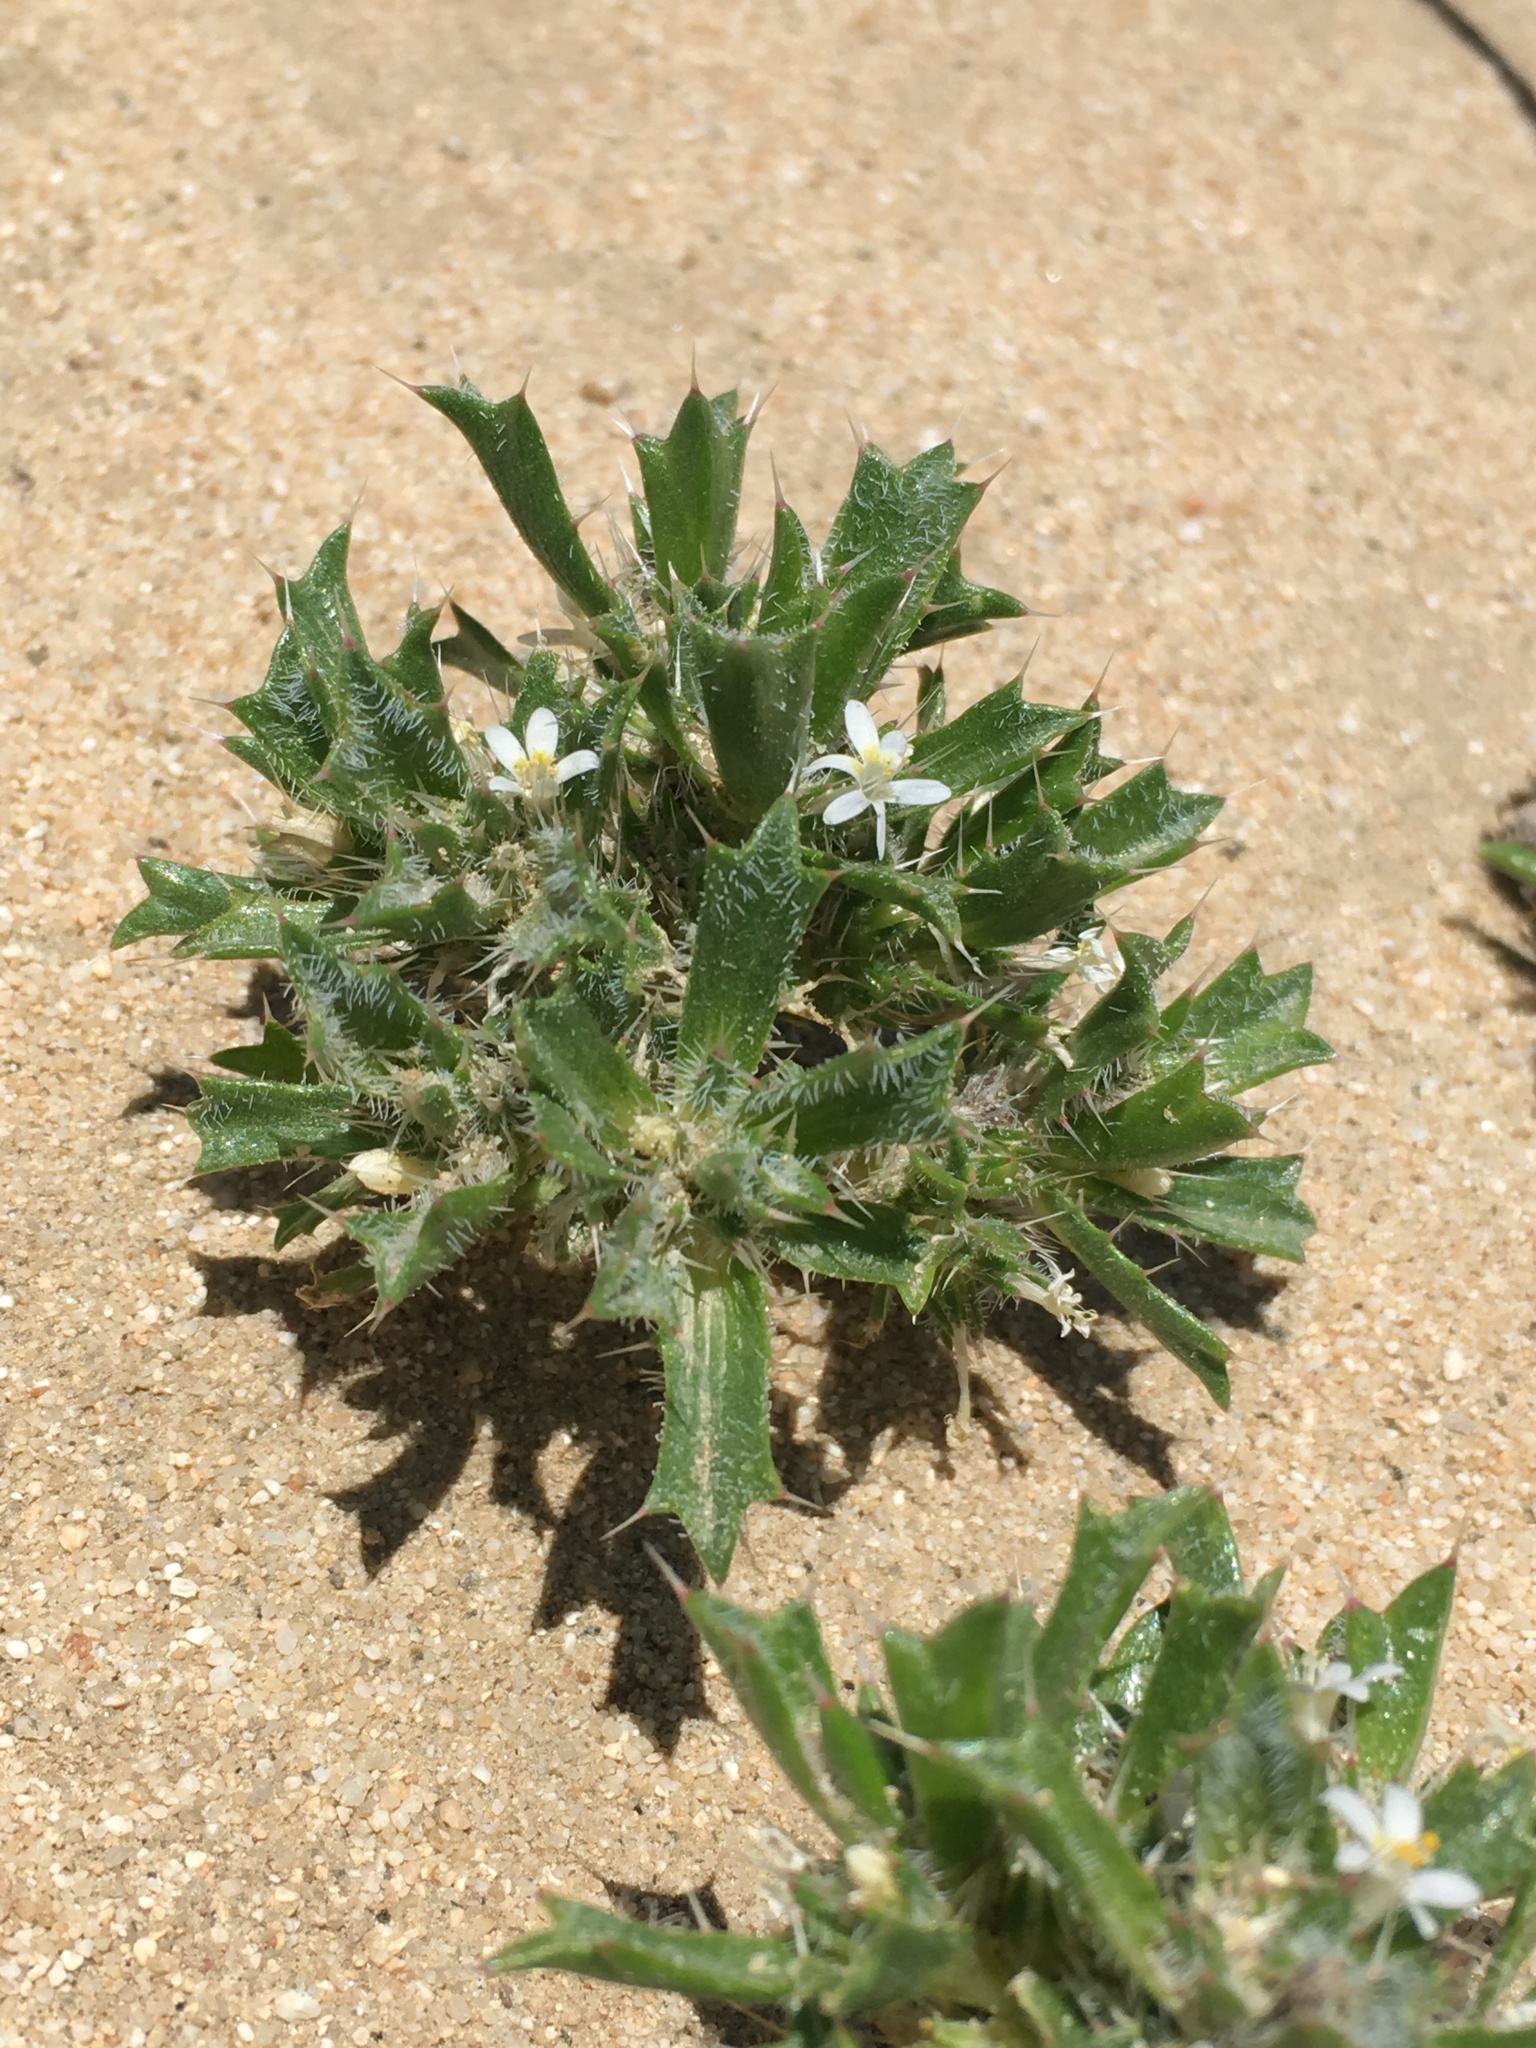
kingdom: Plantae
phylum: Tracheophyta
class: Magnoliopsida
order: Ericales
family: Polemoniaceae
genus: Loeseliastrum
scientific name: Loeseliastrum schottii
